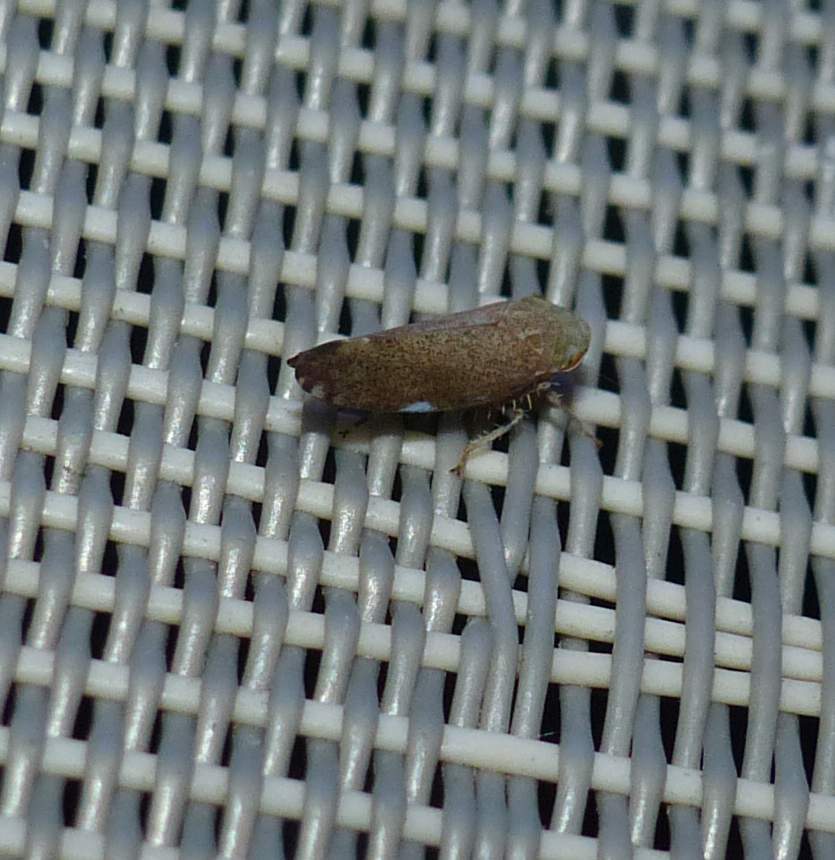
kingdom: Animalia
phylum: Arthropoda
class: Insecta
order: Hemiptera
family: Cicadellidae
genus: Fieberiella
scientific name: Fieberiella florii
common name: Flor’s leafhopper
